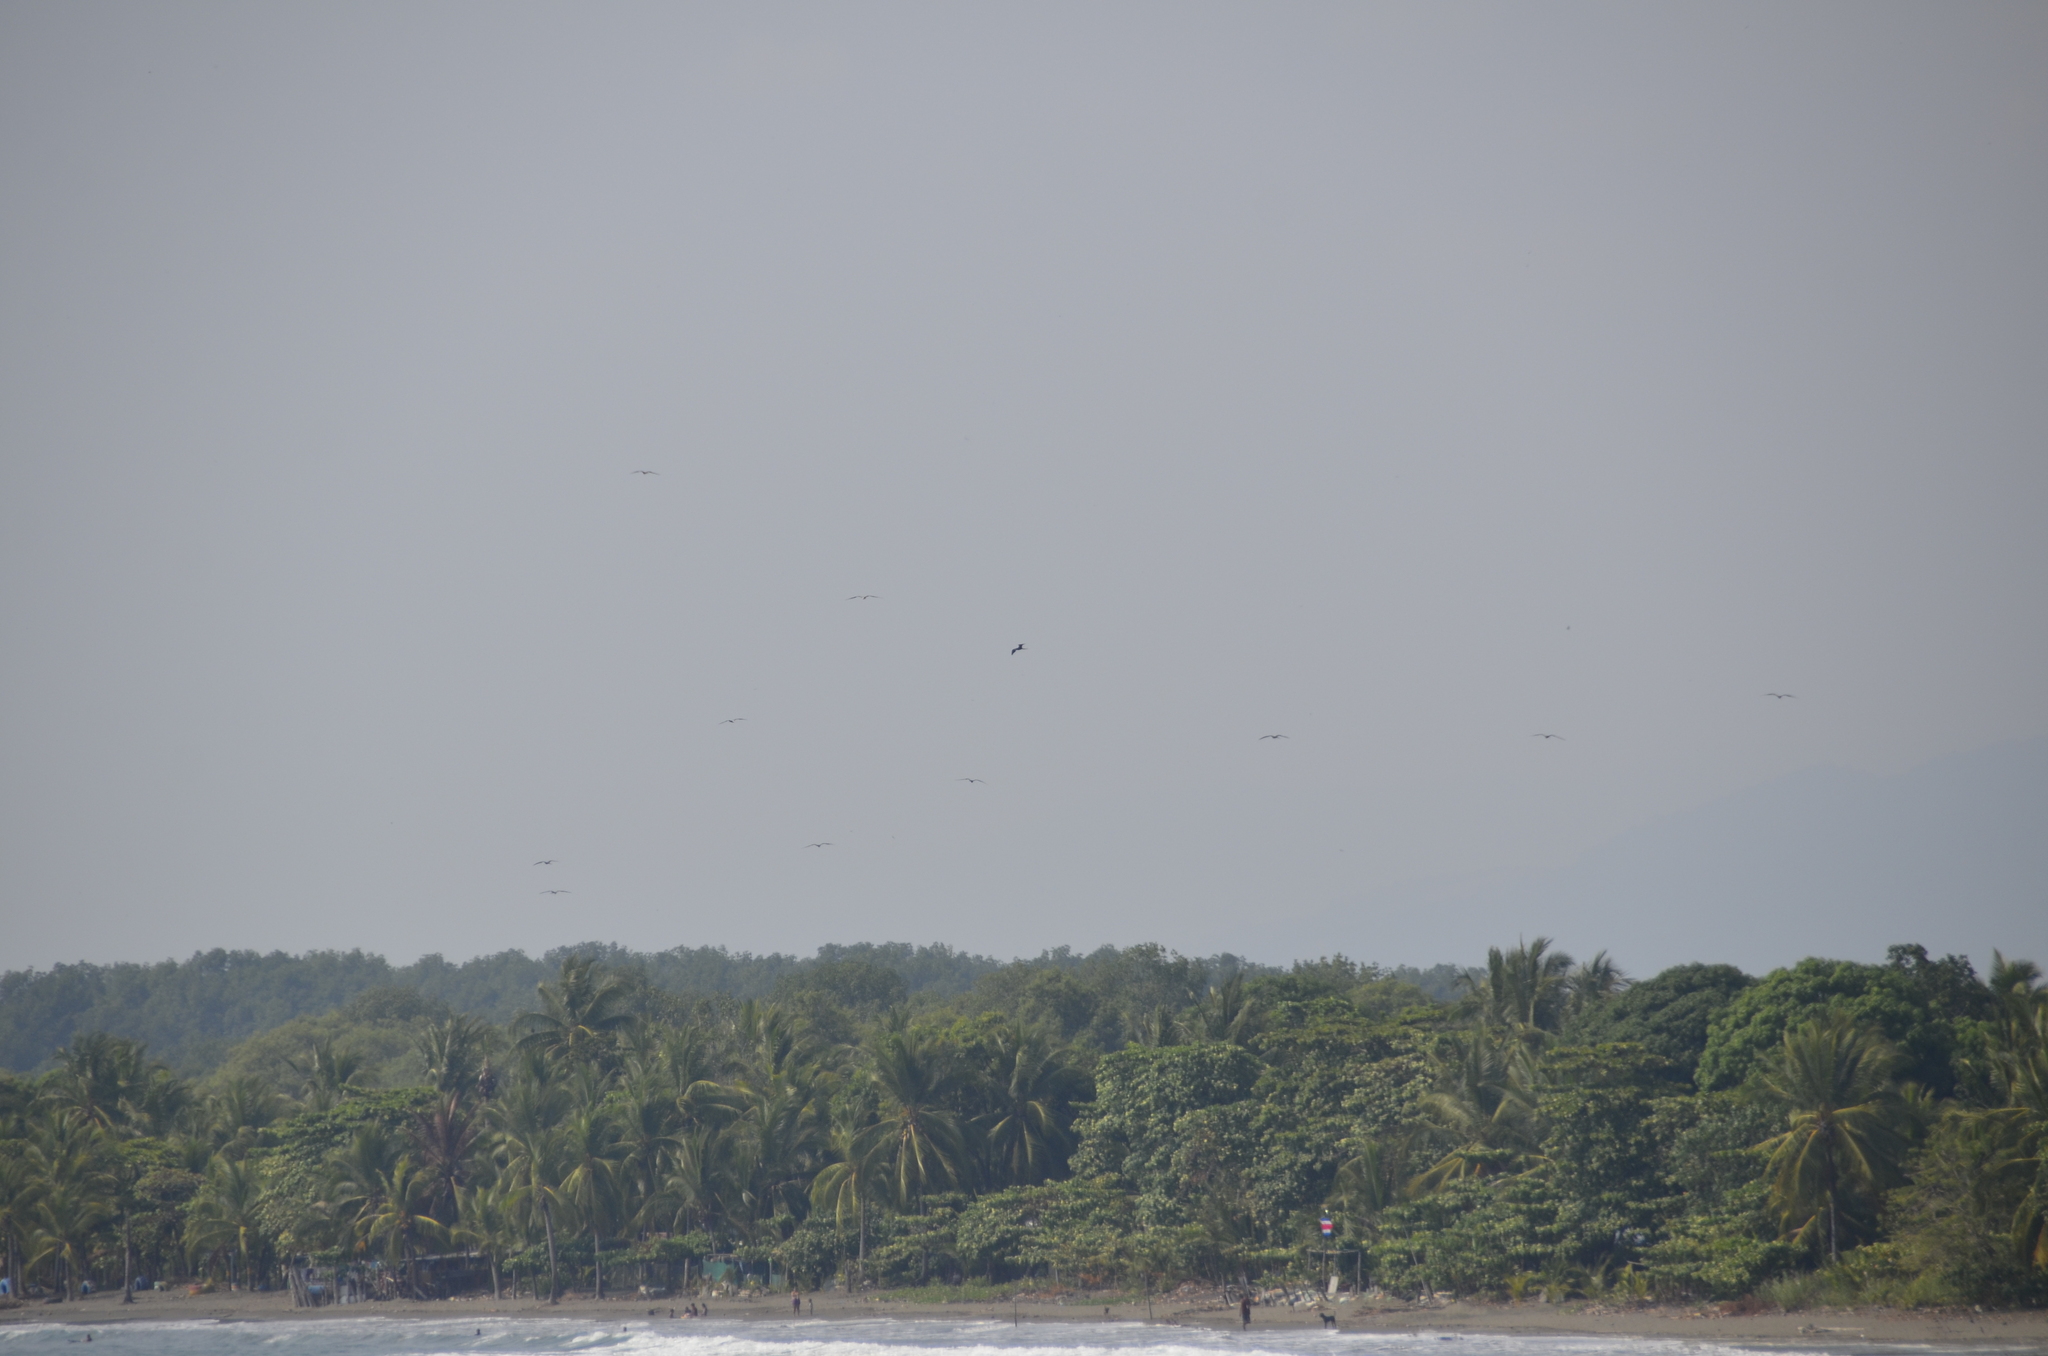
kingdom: Animalia
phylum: Chordata
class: Aves
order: Suliformes
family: Fregatidae
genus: Fregata
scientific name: Fregata magnificens
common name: Magnificent frigatebird
